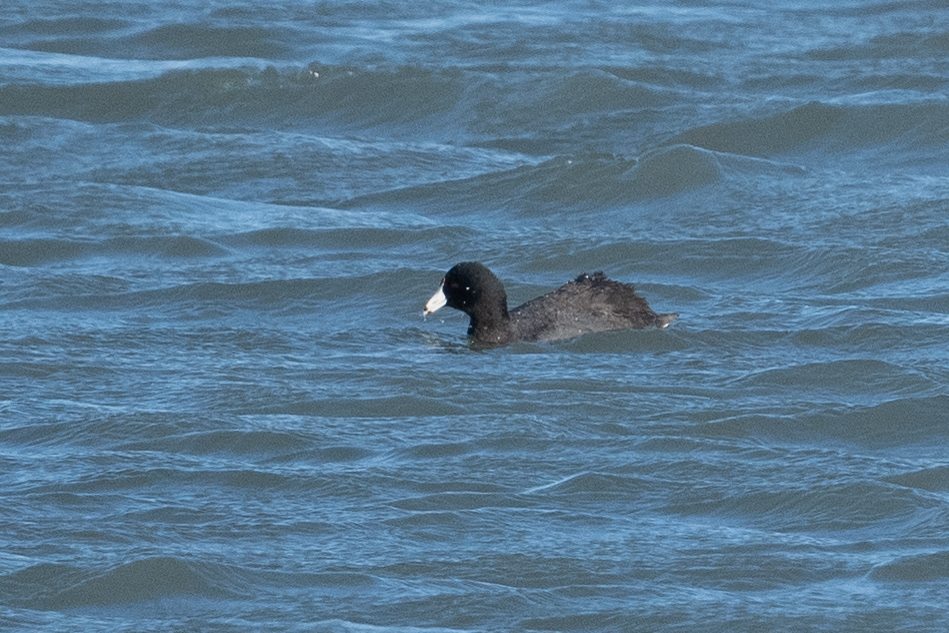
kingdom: Animalia
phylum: Chordata
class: Aves
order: Gruiformes
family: Rallidae
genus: Fulica
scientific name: Fulica americana
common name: American coot
